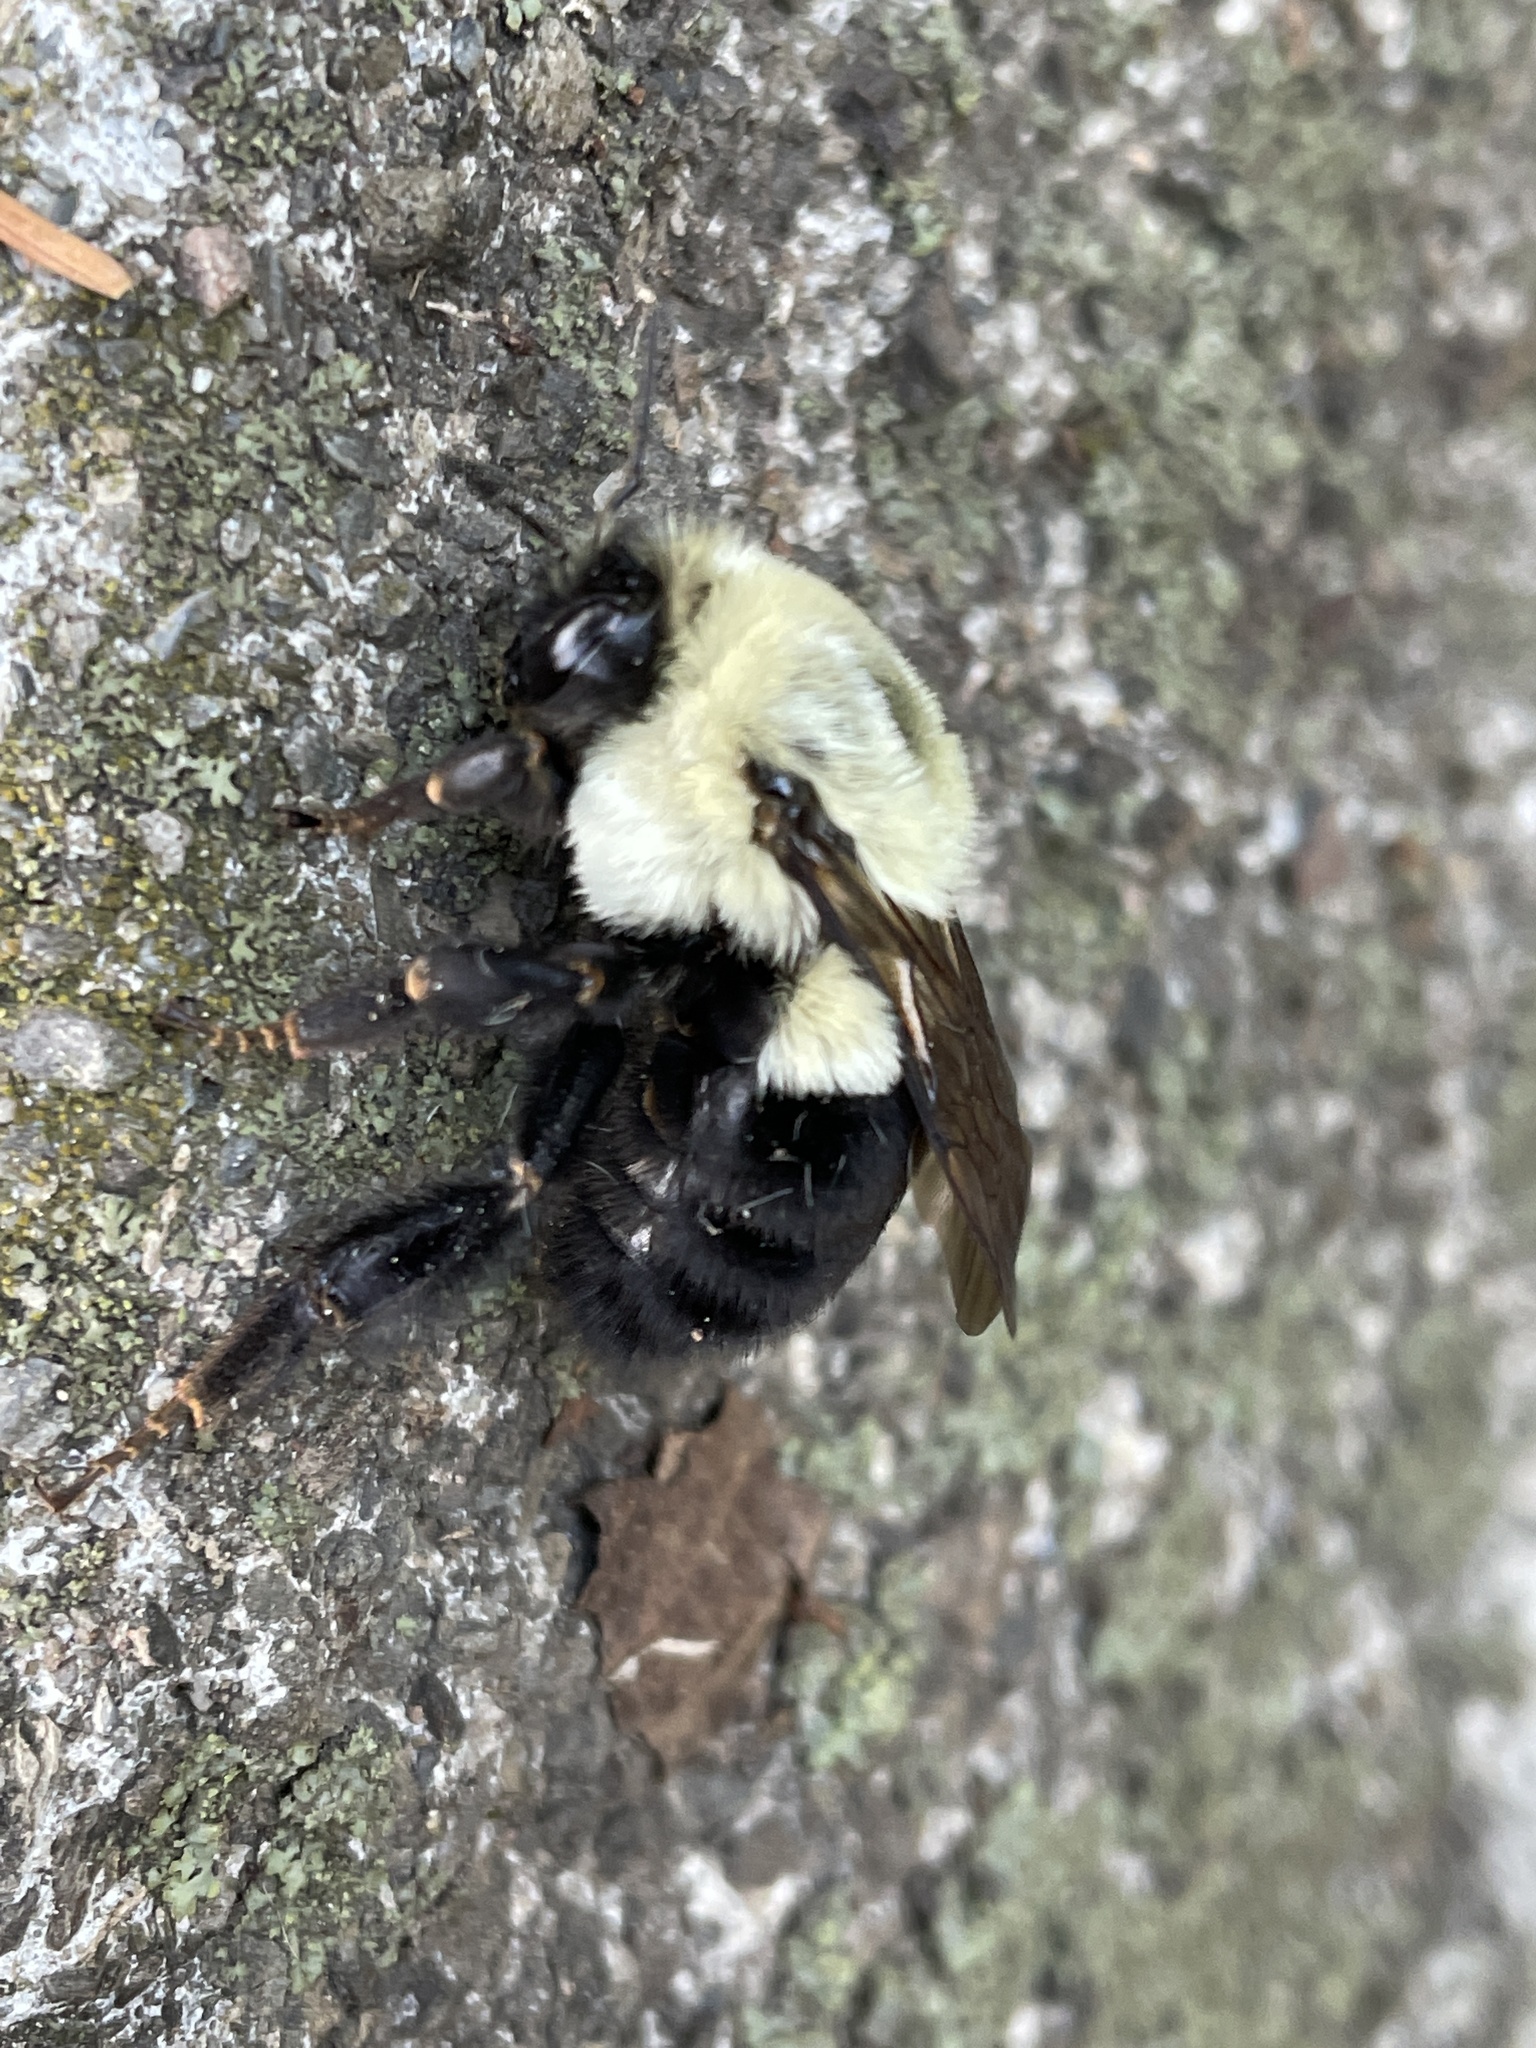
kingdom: Animalia
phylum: Arthropoda
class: Insecta
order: Hymenoptera
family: Apidae
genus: Bombus
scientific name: Bombus impatiens
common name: Common eastern bumble bee
